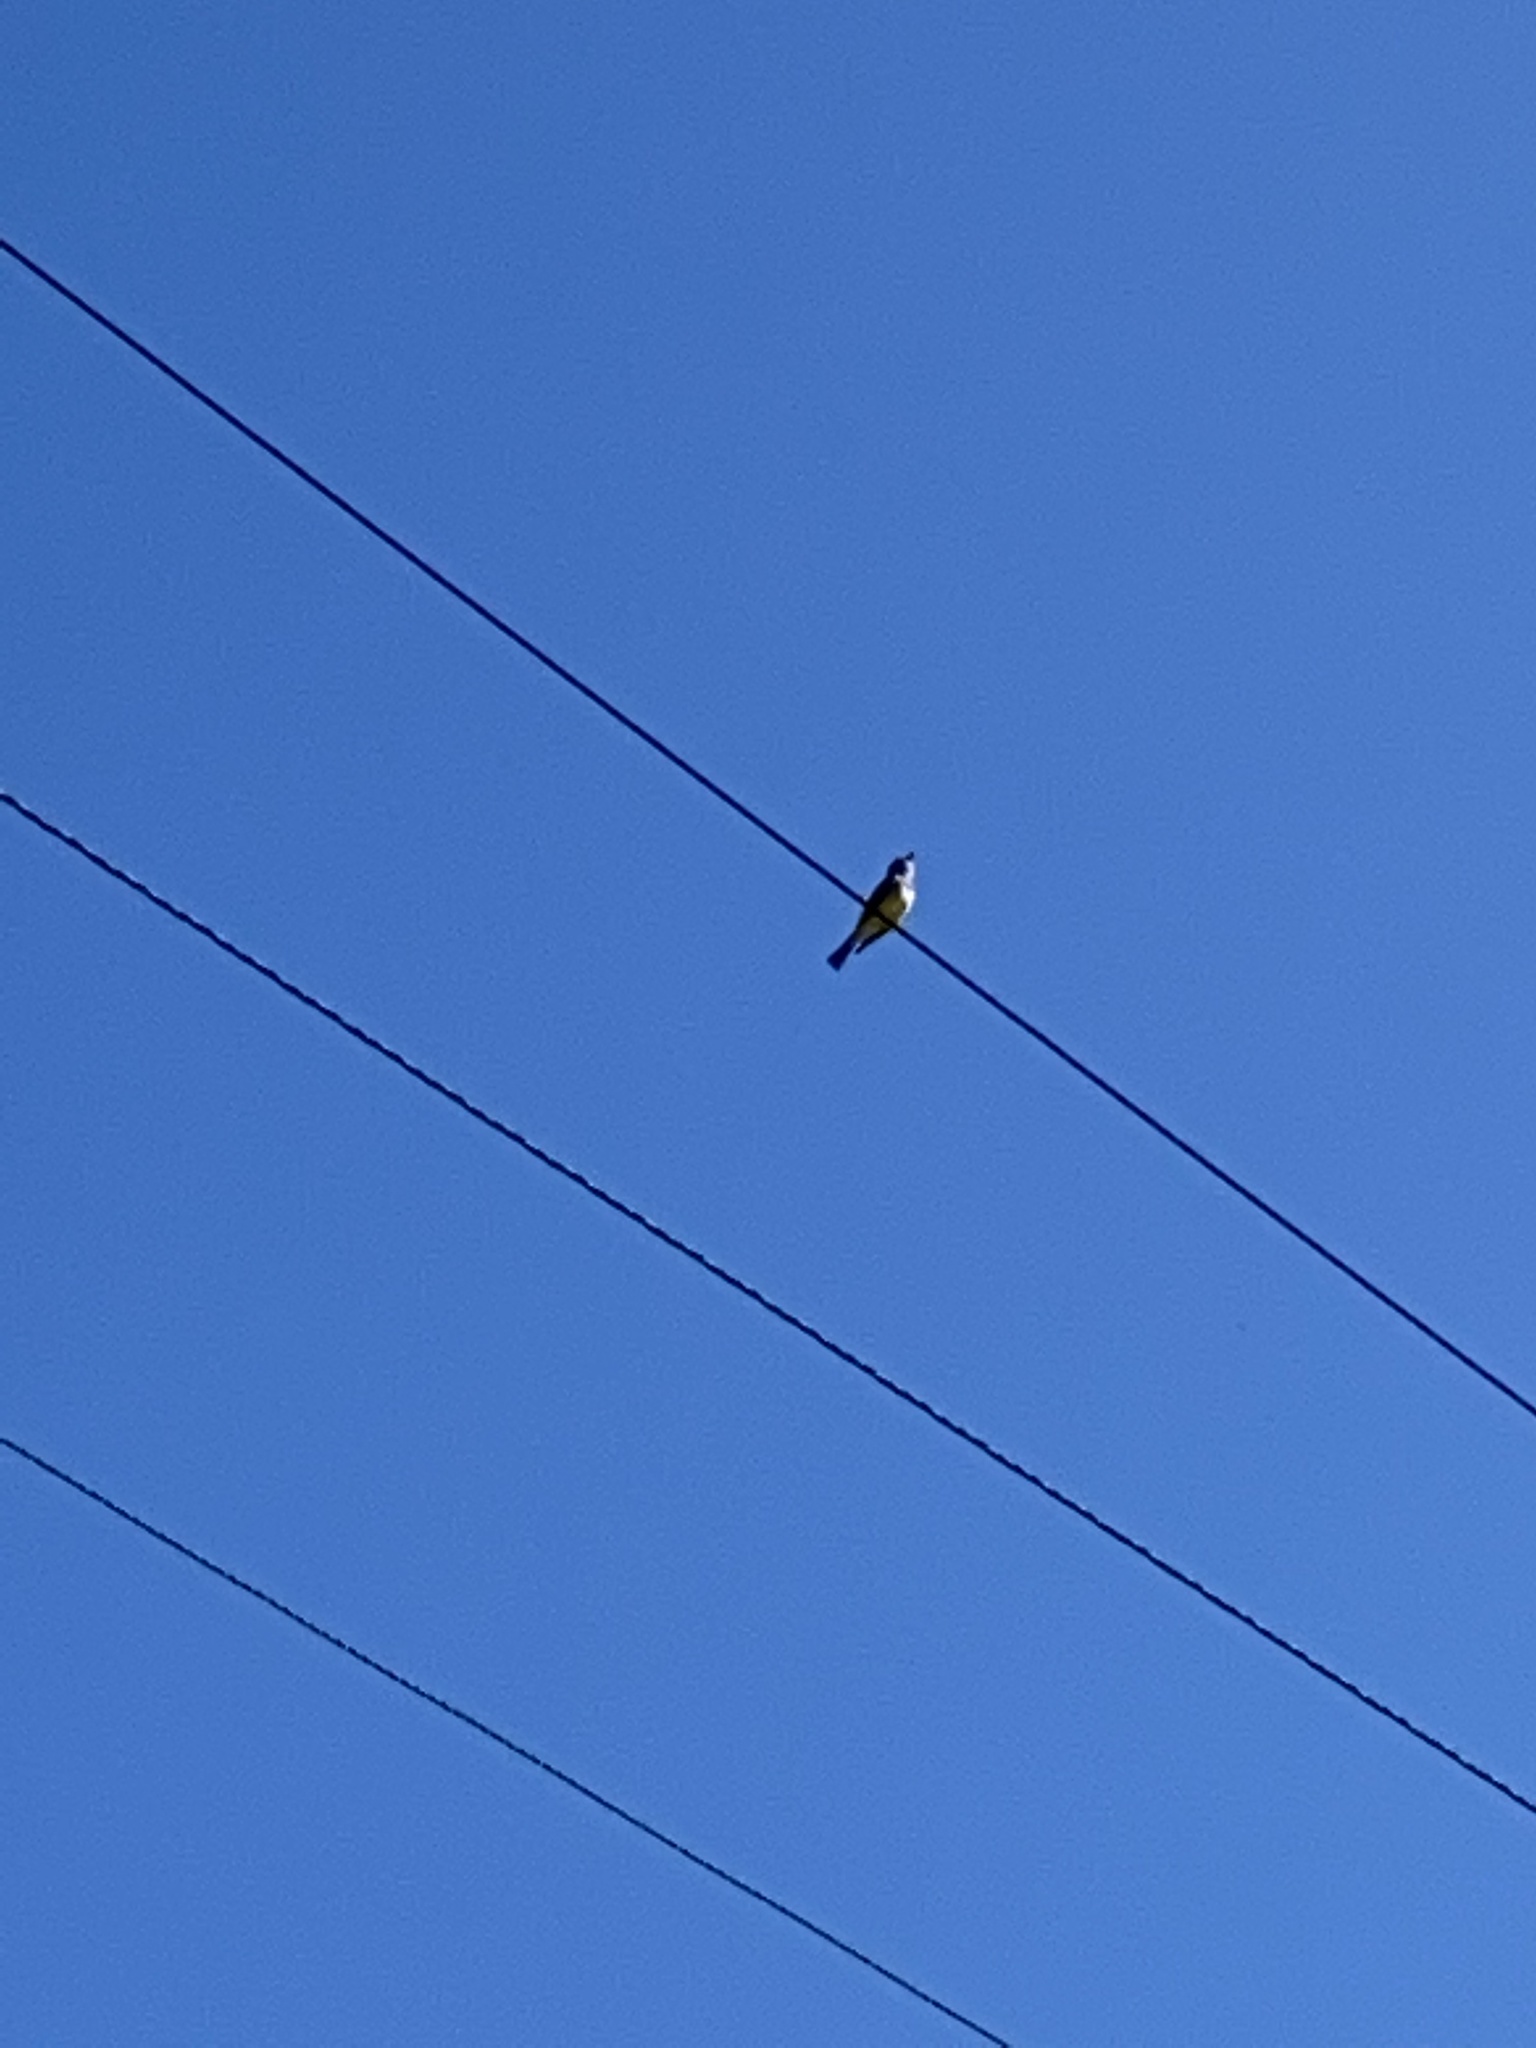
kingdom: Animalia
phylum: Chordata
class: Aves
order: Passeriformes
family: Tyrannidae
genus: Tyrannus
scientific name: Tyrannus
